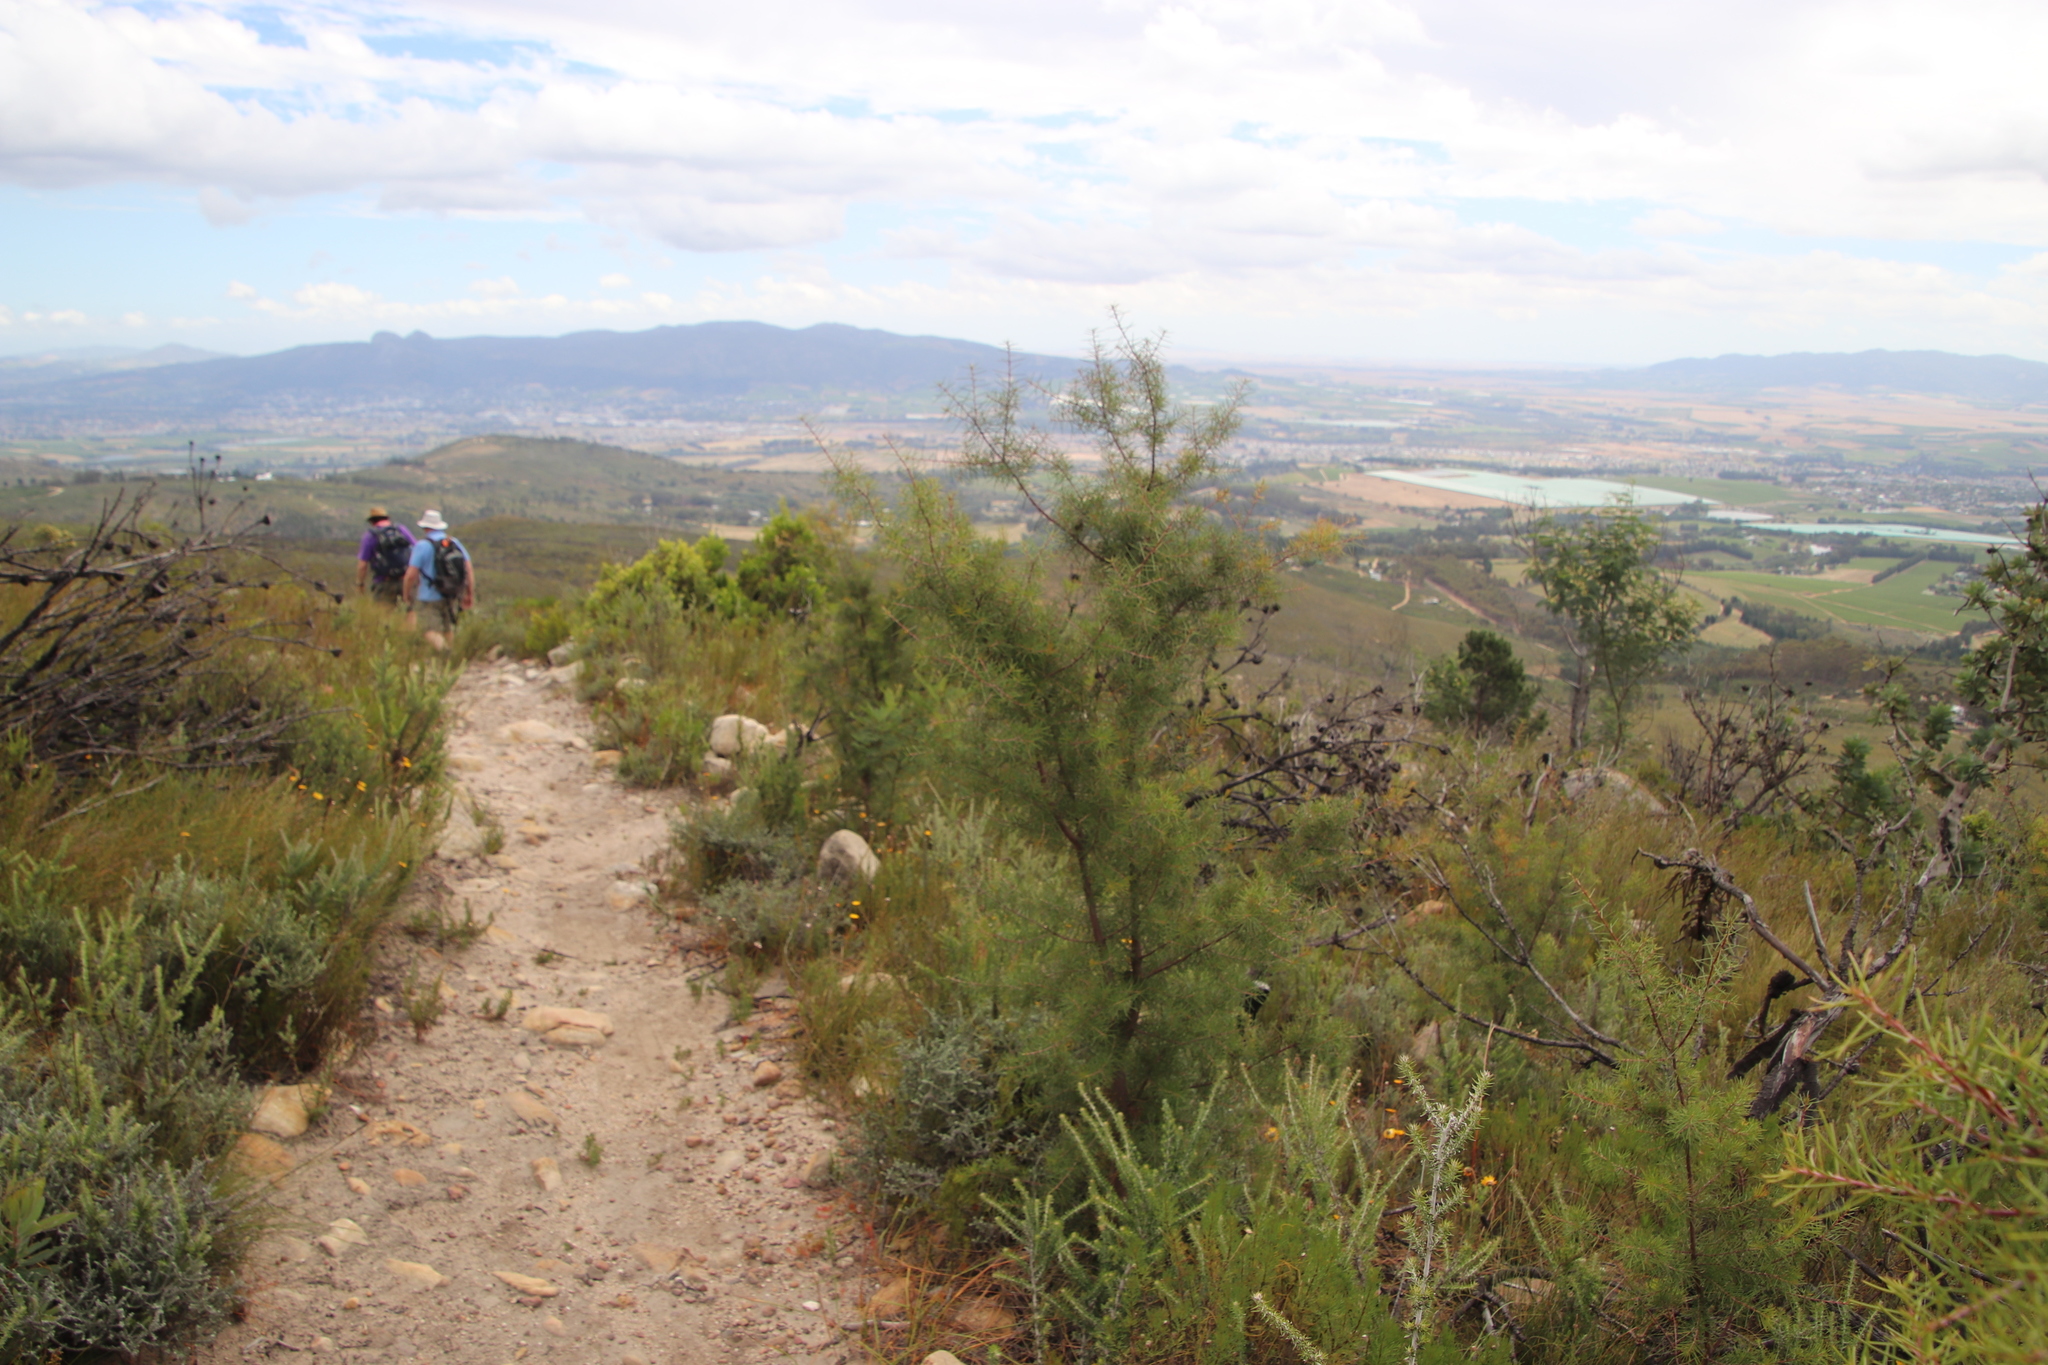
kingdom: Plantae
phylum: Tracheophyta
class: Magnoliopsida
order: Proteales
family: Proteaceae
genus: Hakea
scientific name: Hakea sericea
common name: Needle bush
